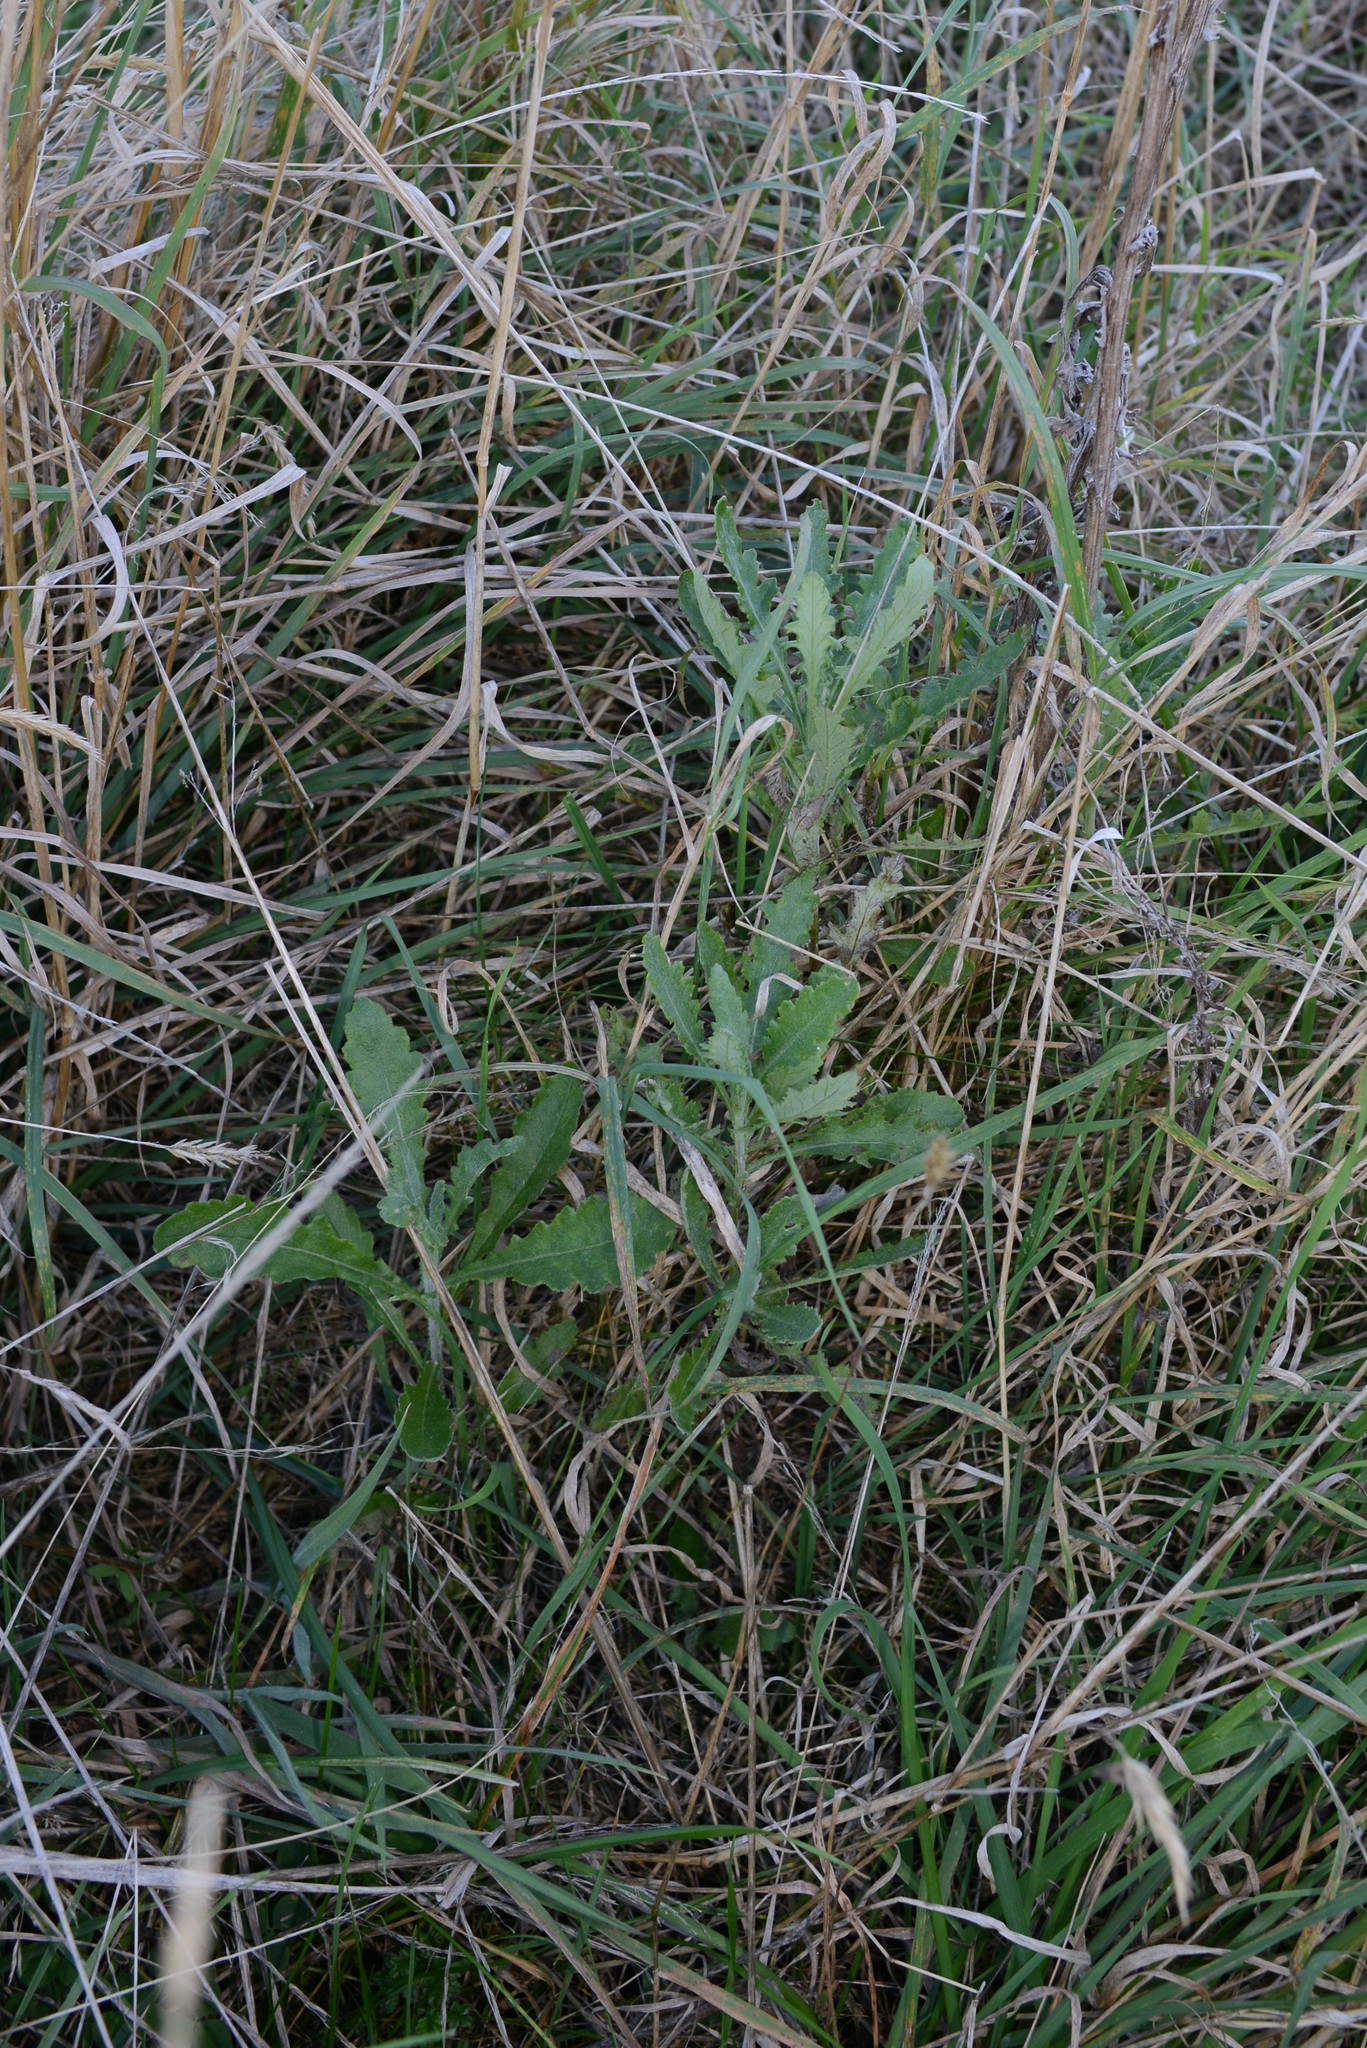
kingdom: Plantae
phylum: Tracheophyta
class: Magnoliopsida
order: Asterales
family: Asteraceae
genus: Senecio
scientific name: Senecio glomeratus
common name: Cutleaf burnweed
